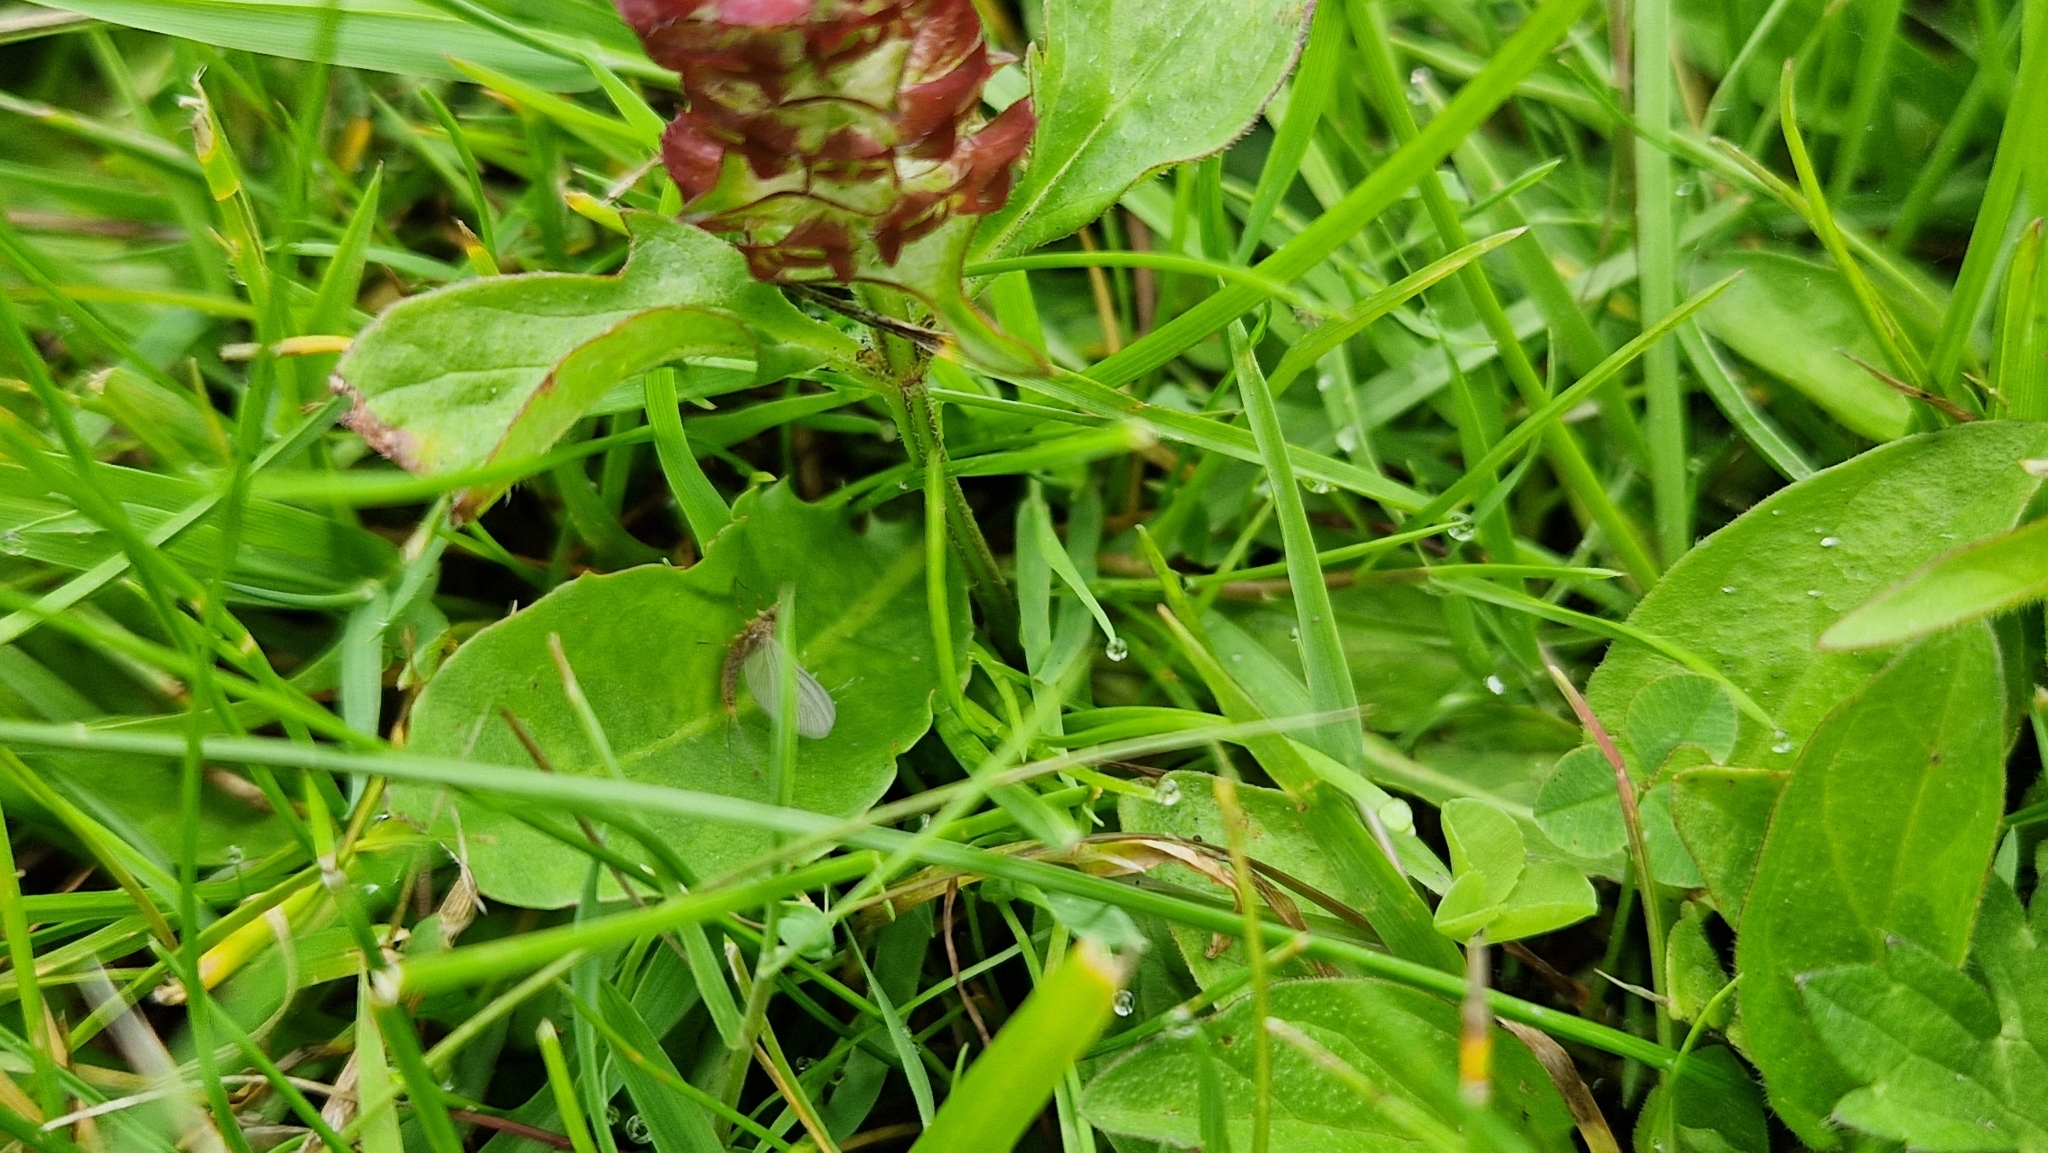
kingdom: Plantae
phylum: Tracheophyta
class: Magnoliopsida
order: Lamiales
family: Lamiaceae
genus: Prunella
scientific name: Prunella vulgaris
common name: Heal-all
